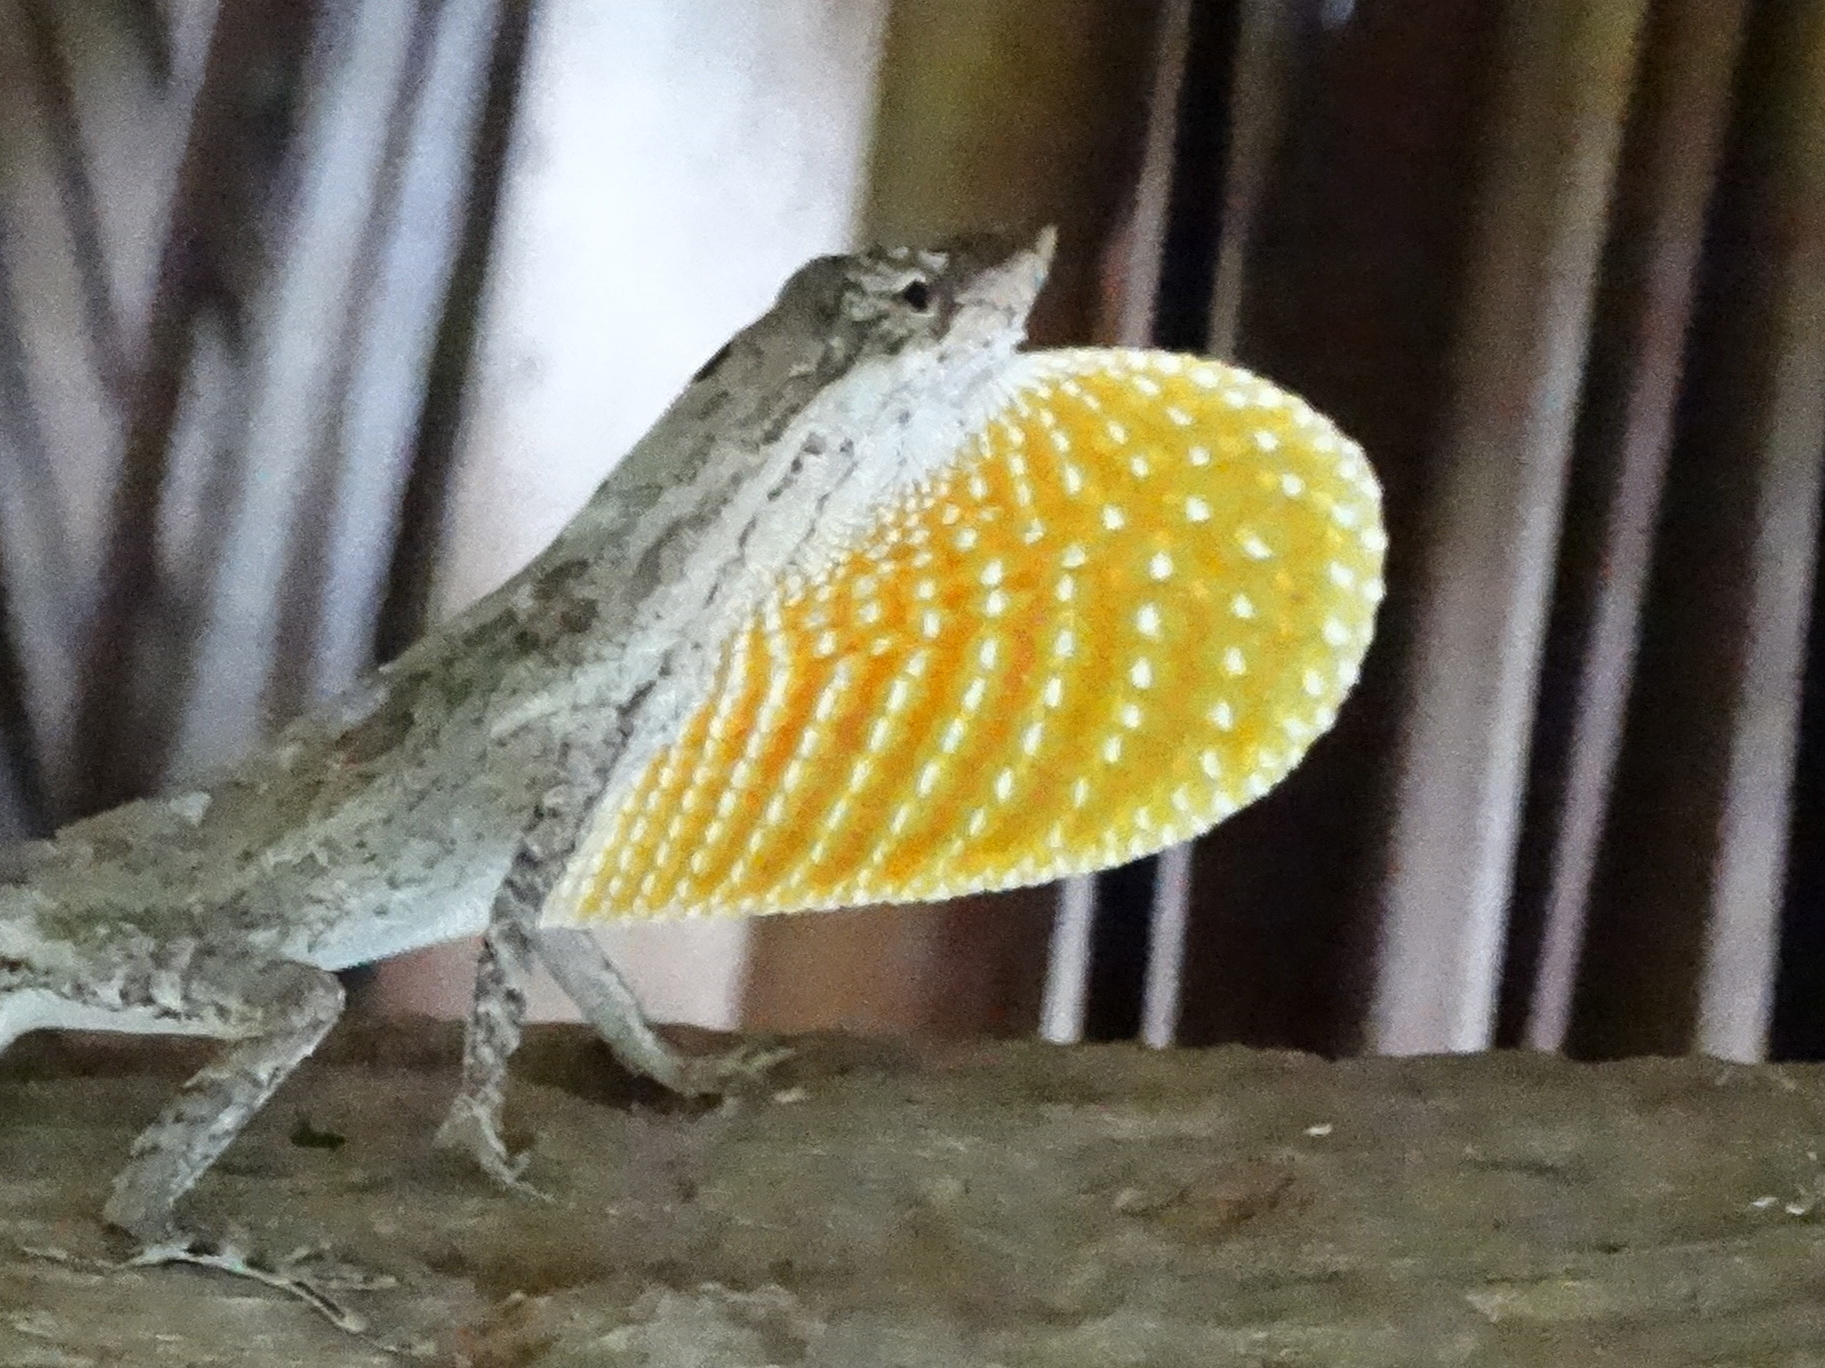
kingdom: Animalia
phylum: Chordata
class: Squamata
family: Dactyloidae
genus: Anolis
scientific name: Anolis nebulosus
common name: Clouded anole
